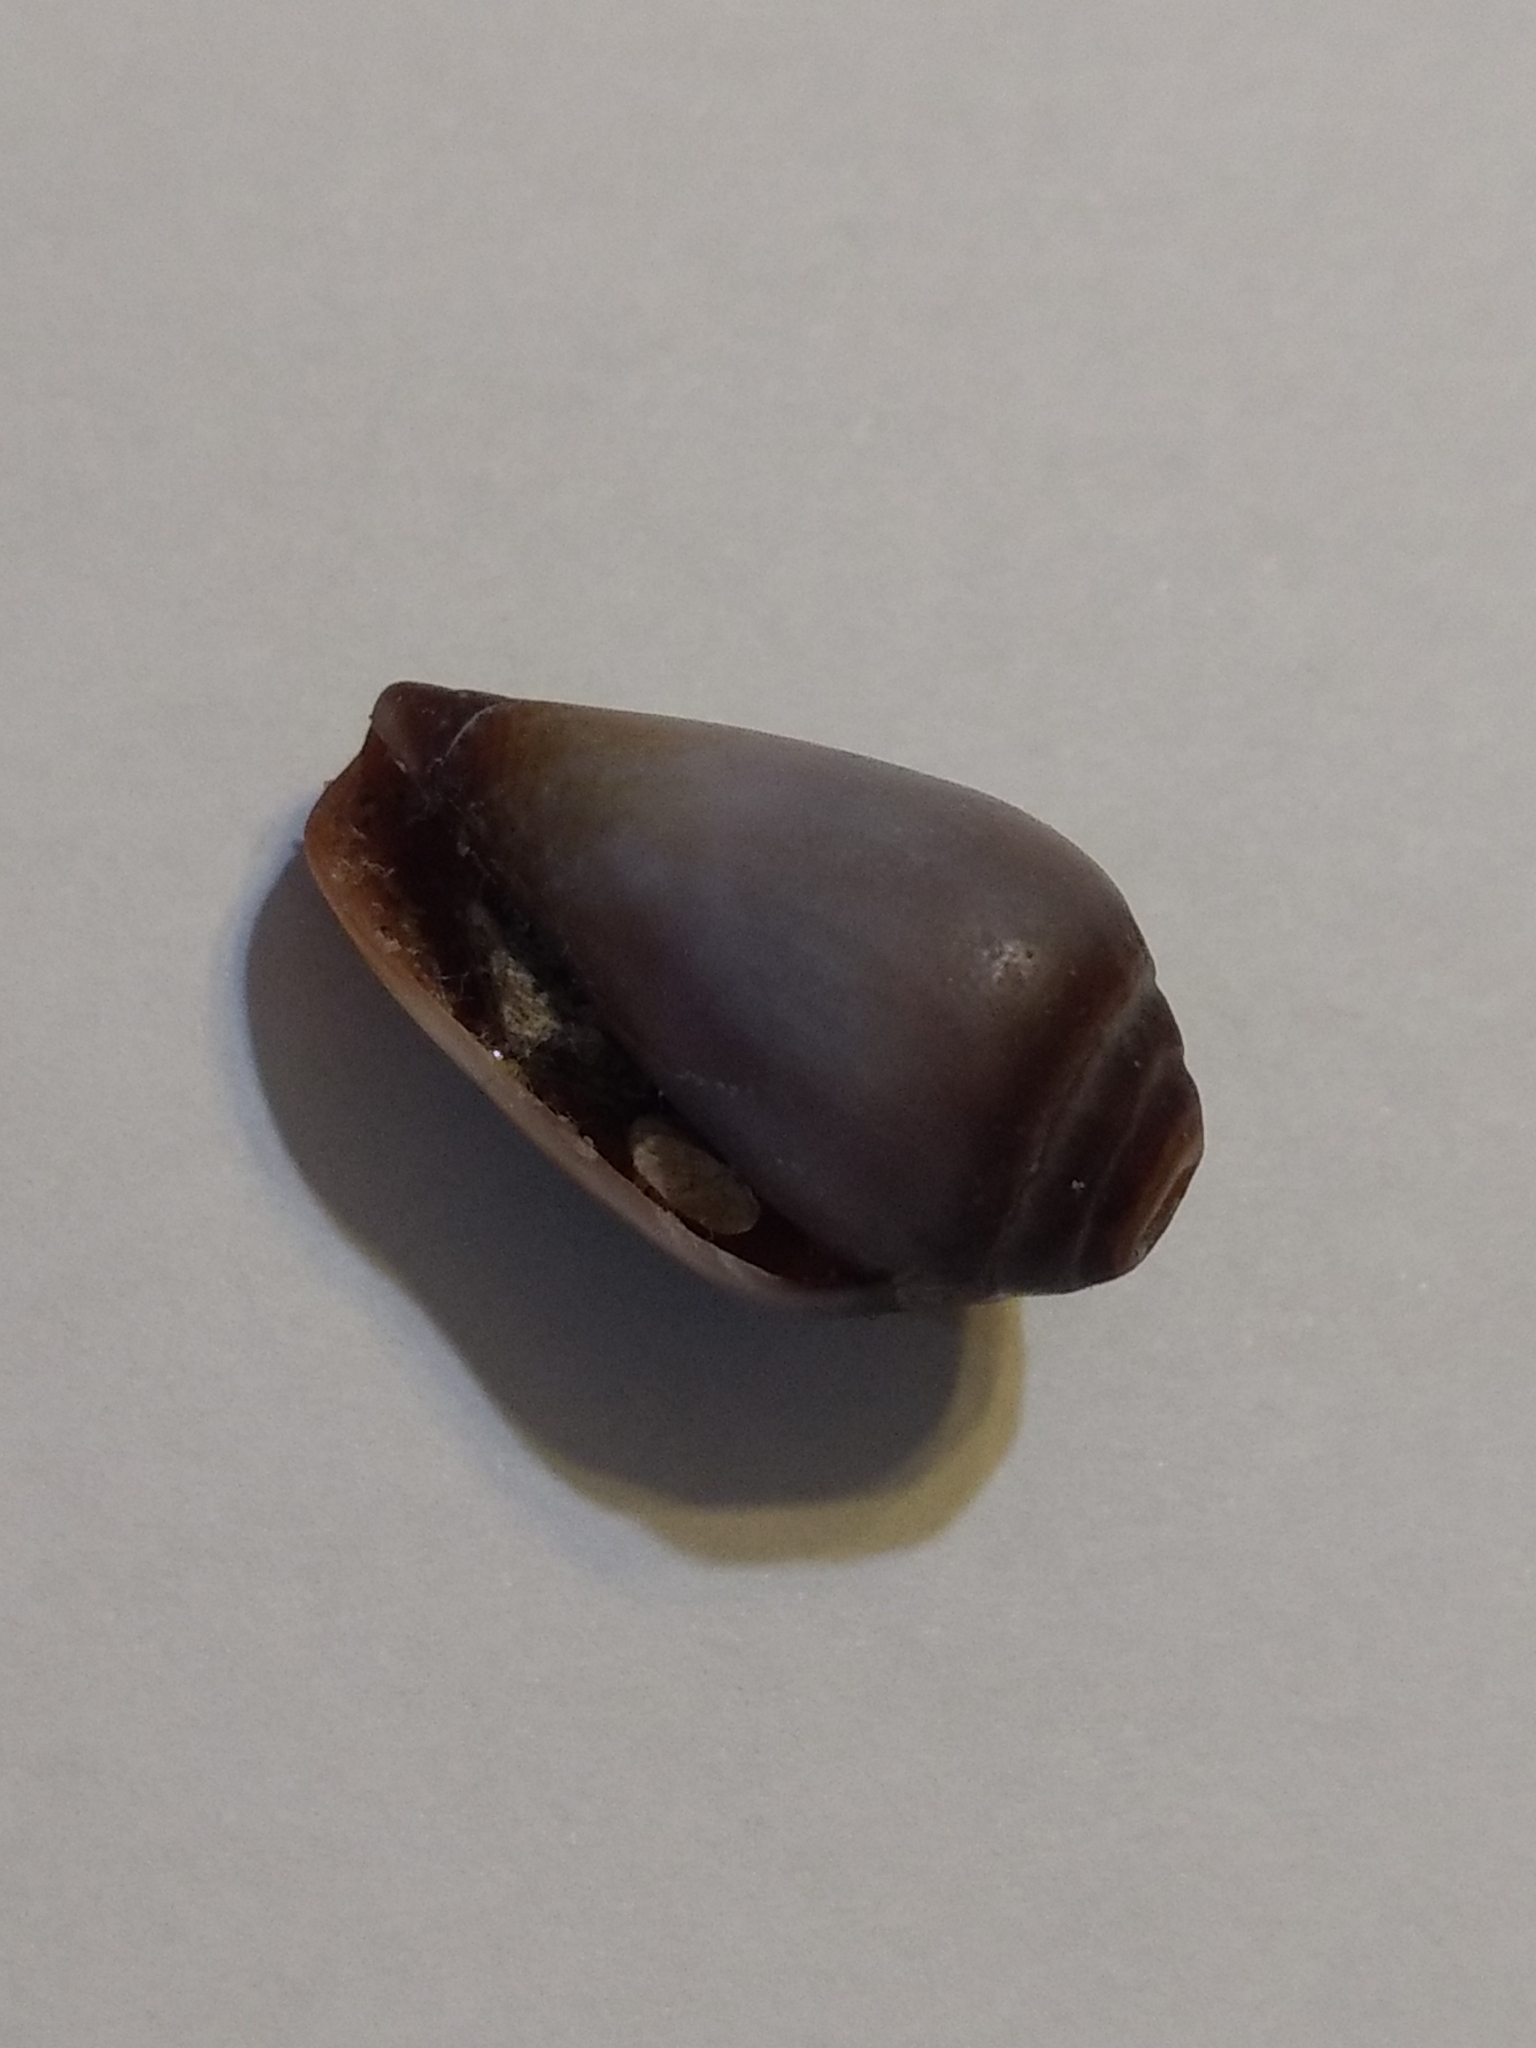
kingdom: Animalia
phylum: Mollusca
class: Gastropoda
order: Neogastropoda
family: Conidae
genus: Californiconus
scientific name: Californiconus californicus
